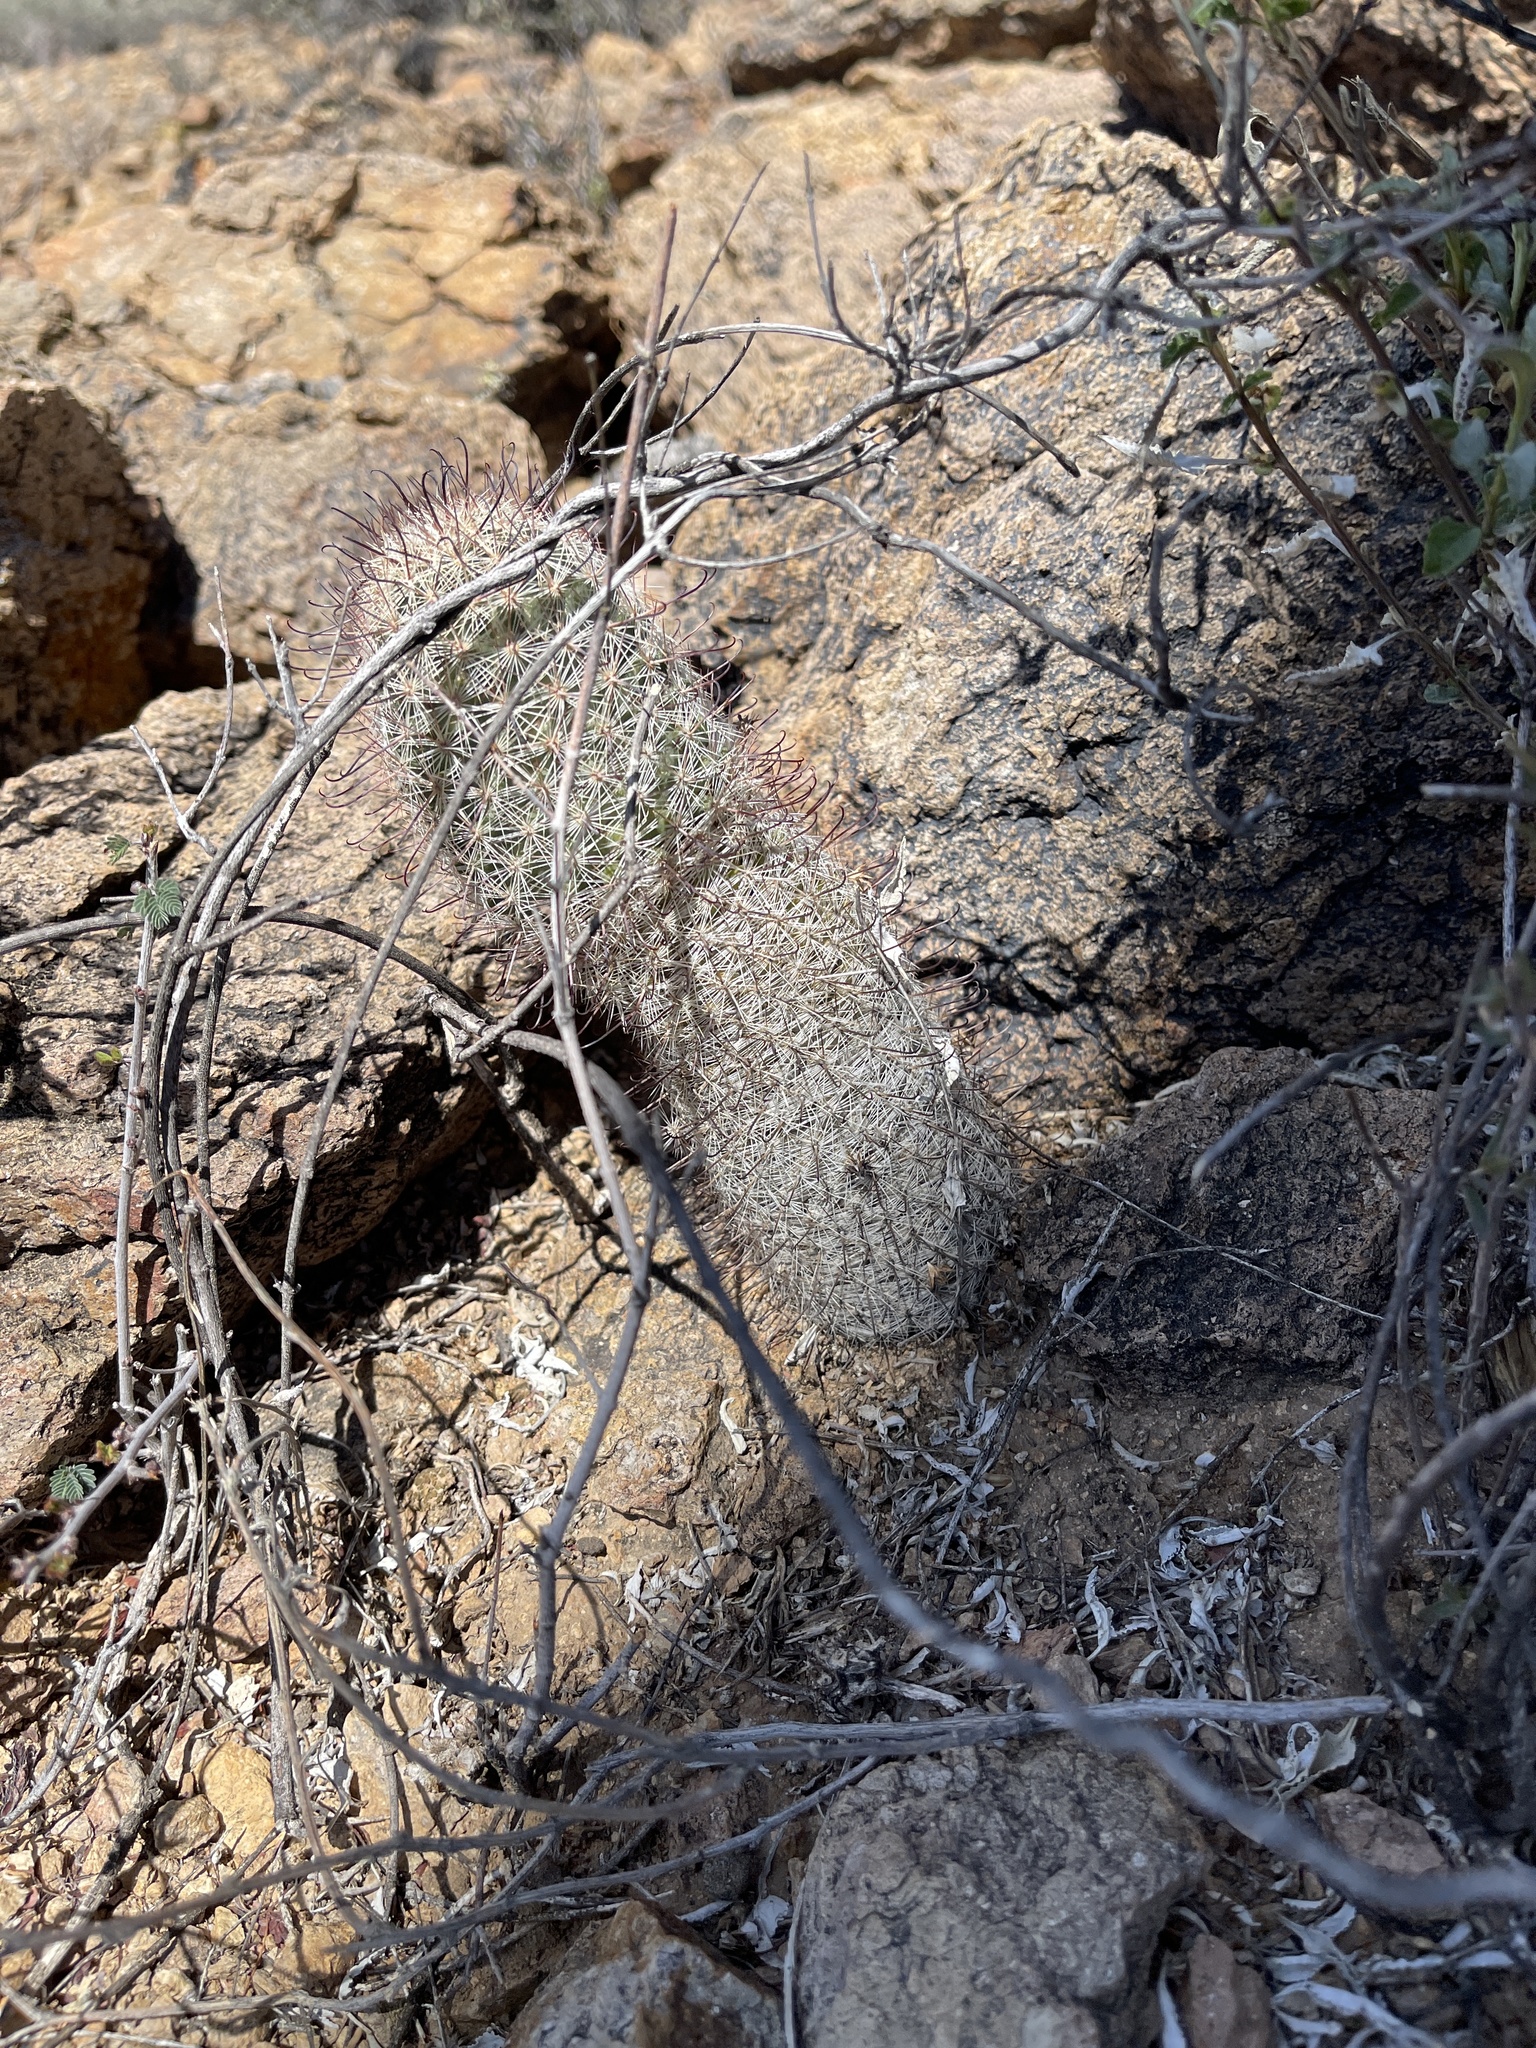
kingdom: Plantae
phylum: Tracheophyta
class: Magnoliopsida
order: Caryophyllales
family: Cactaceae
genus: Cochemiea
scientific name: Cochemiea grahamii
